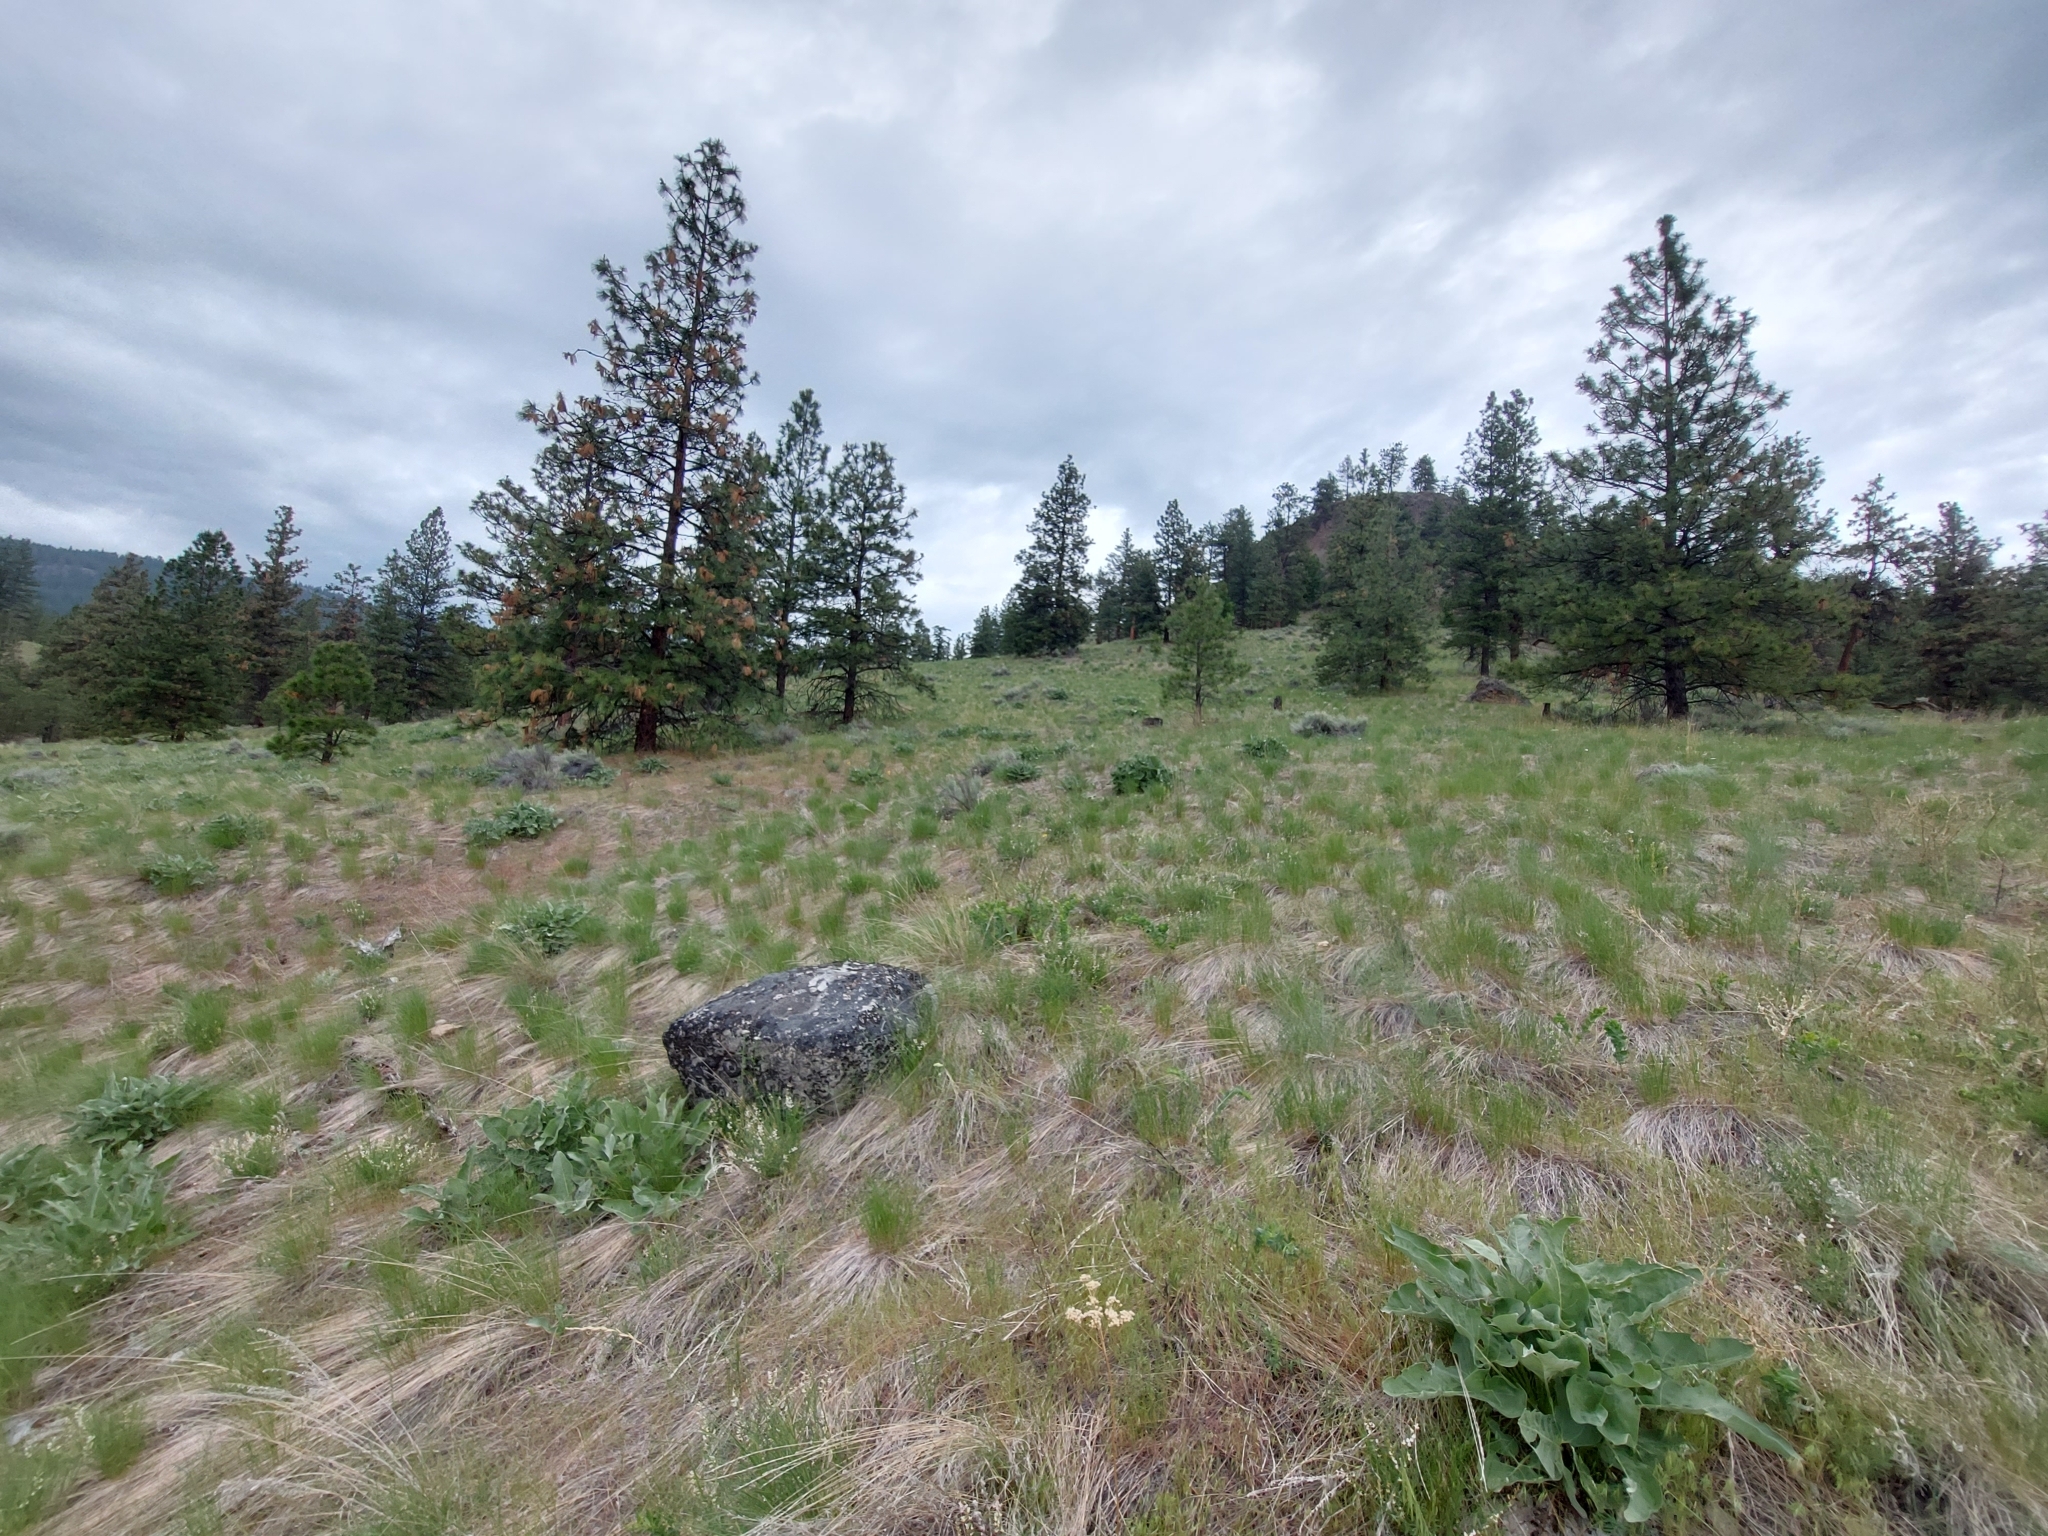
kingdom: Animalia
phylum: Chordata
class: Aves
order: Passeriformes
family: Passerellidae
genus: Pooecetes
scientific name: Pooecetes gramineus
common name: Vesper sparrow
